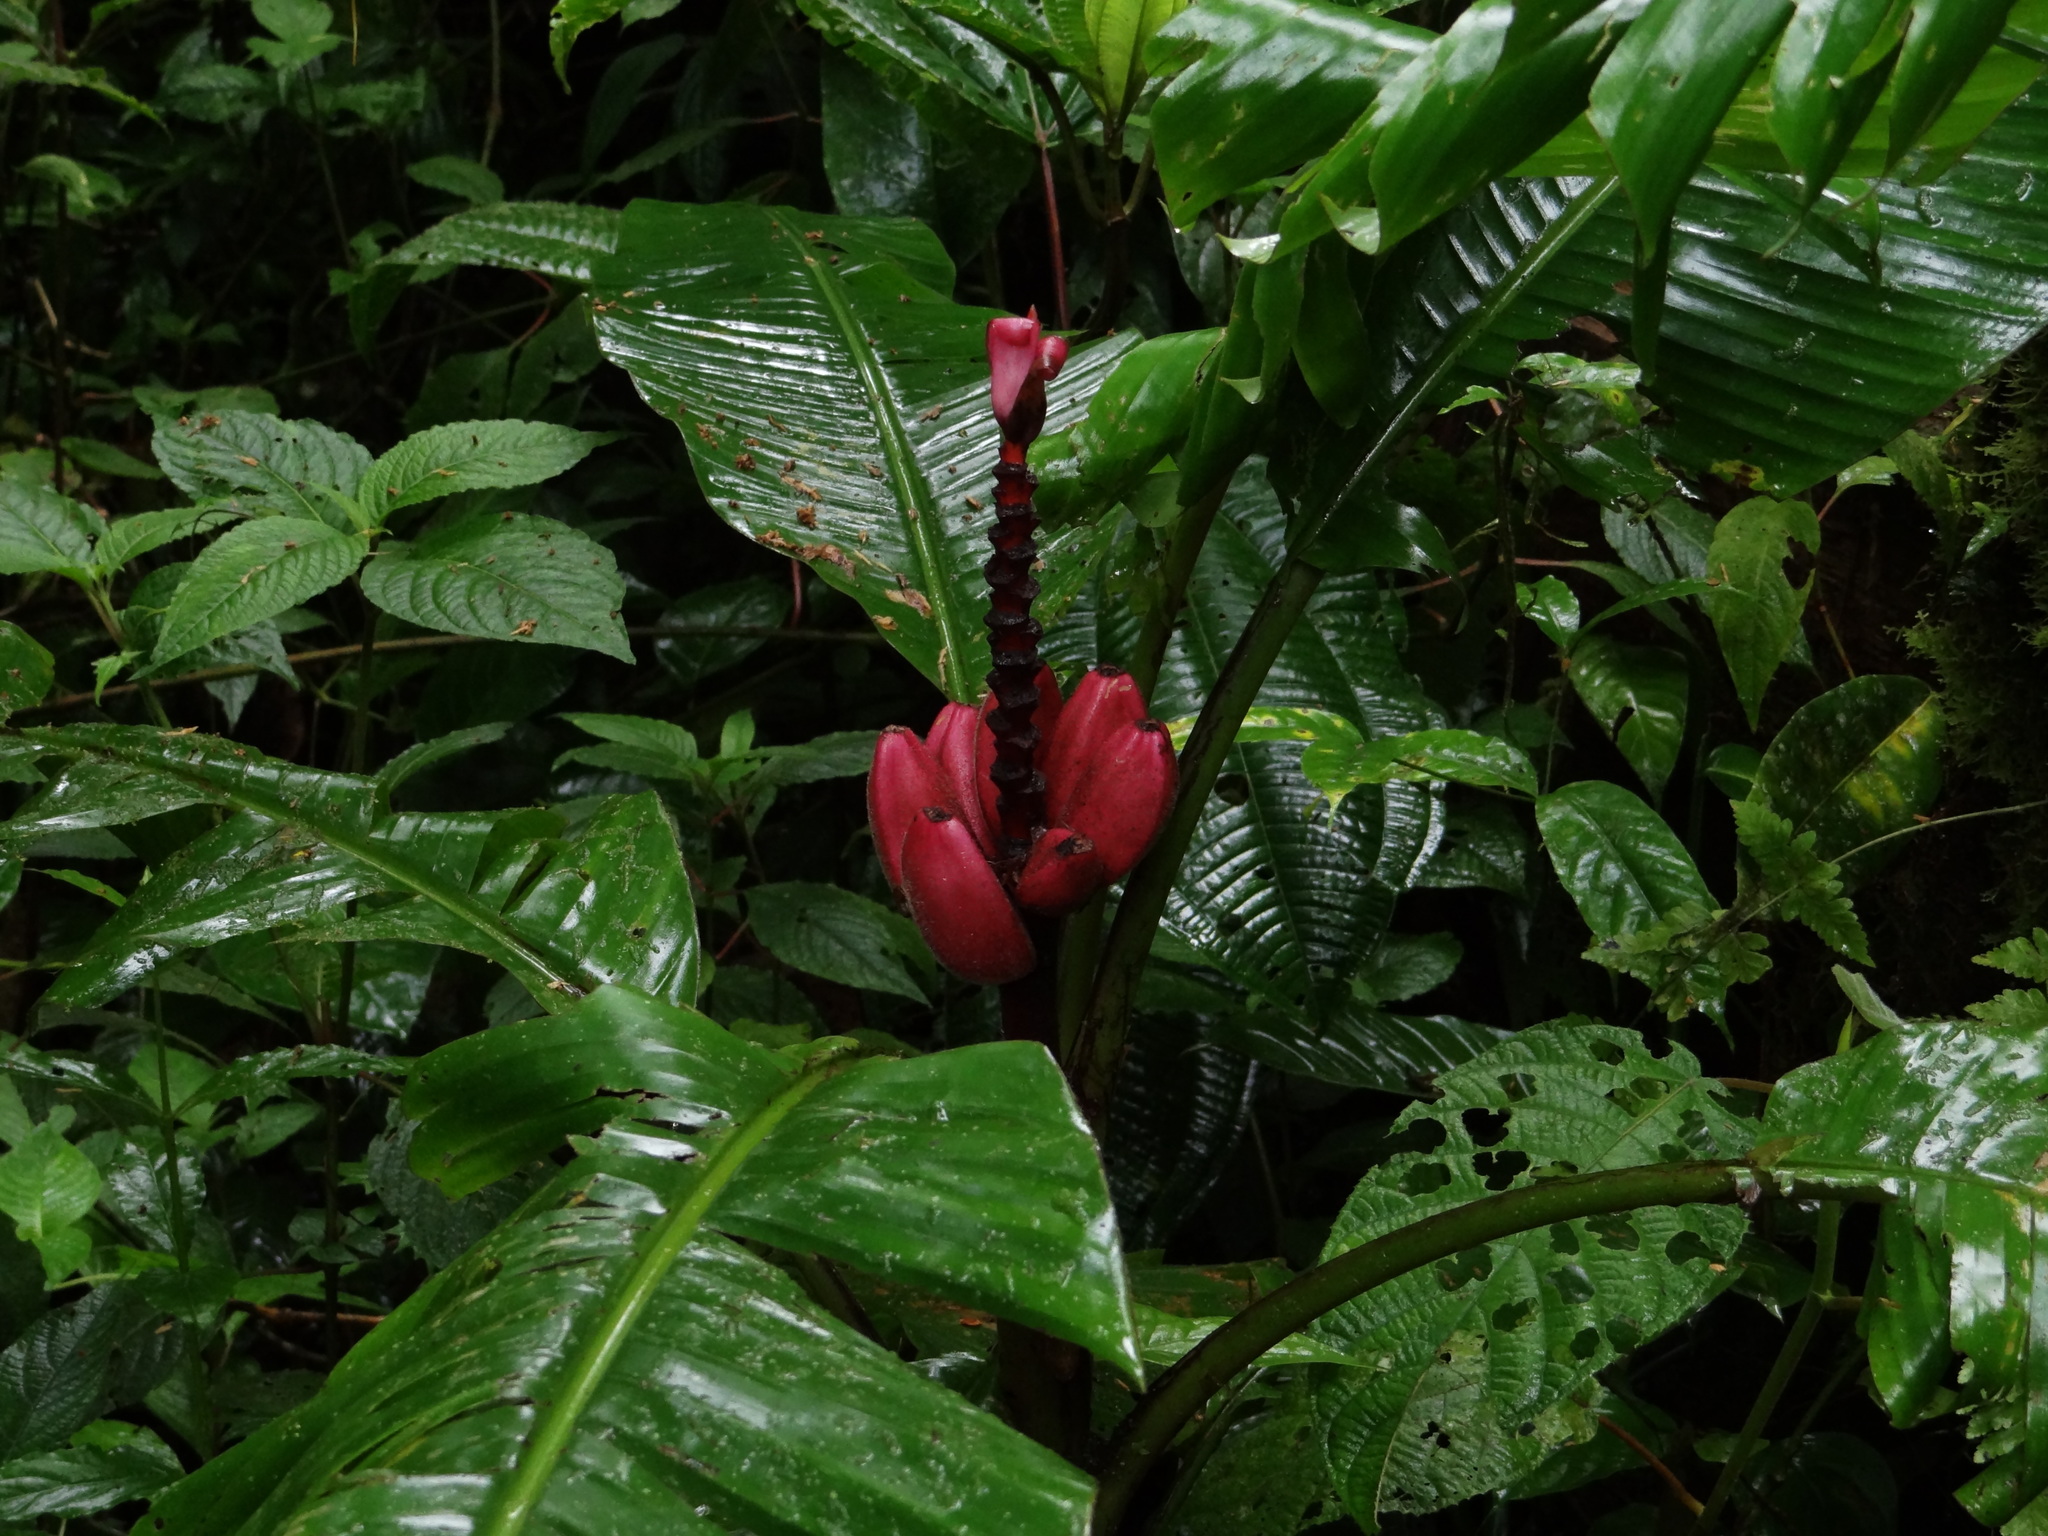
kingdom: Plantae
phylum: Tracheophyta
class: Liliopsida
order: Zingiberales
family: Musaceae
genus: Musa
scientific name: Musa velutina
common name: Pink velvet banana
